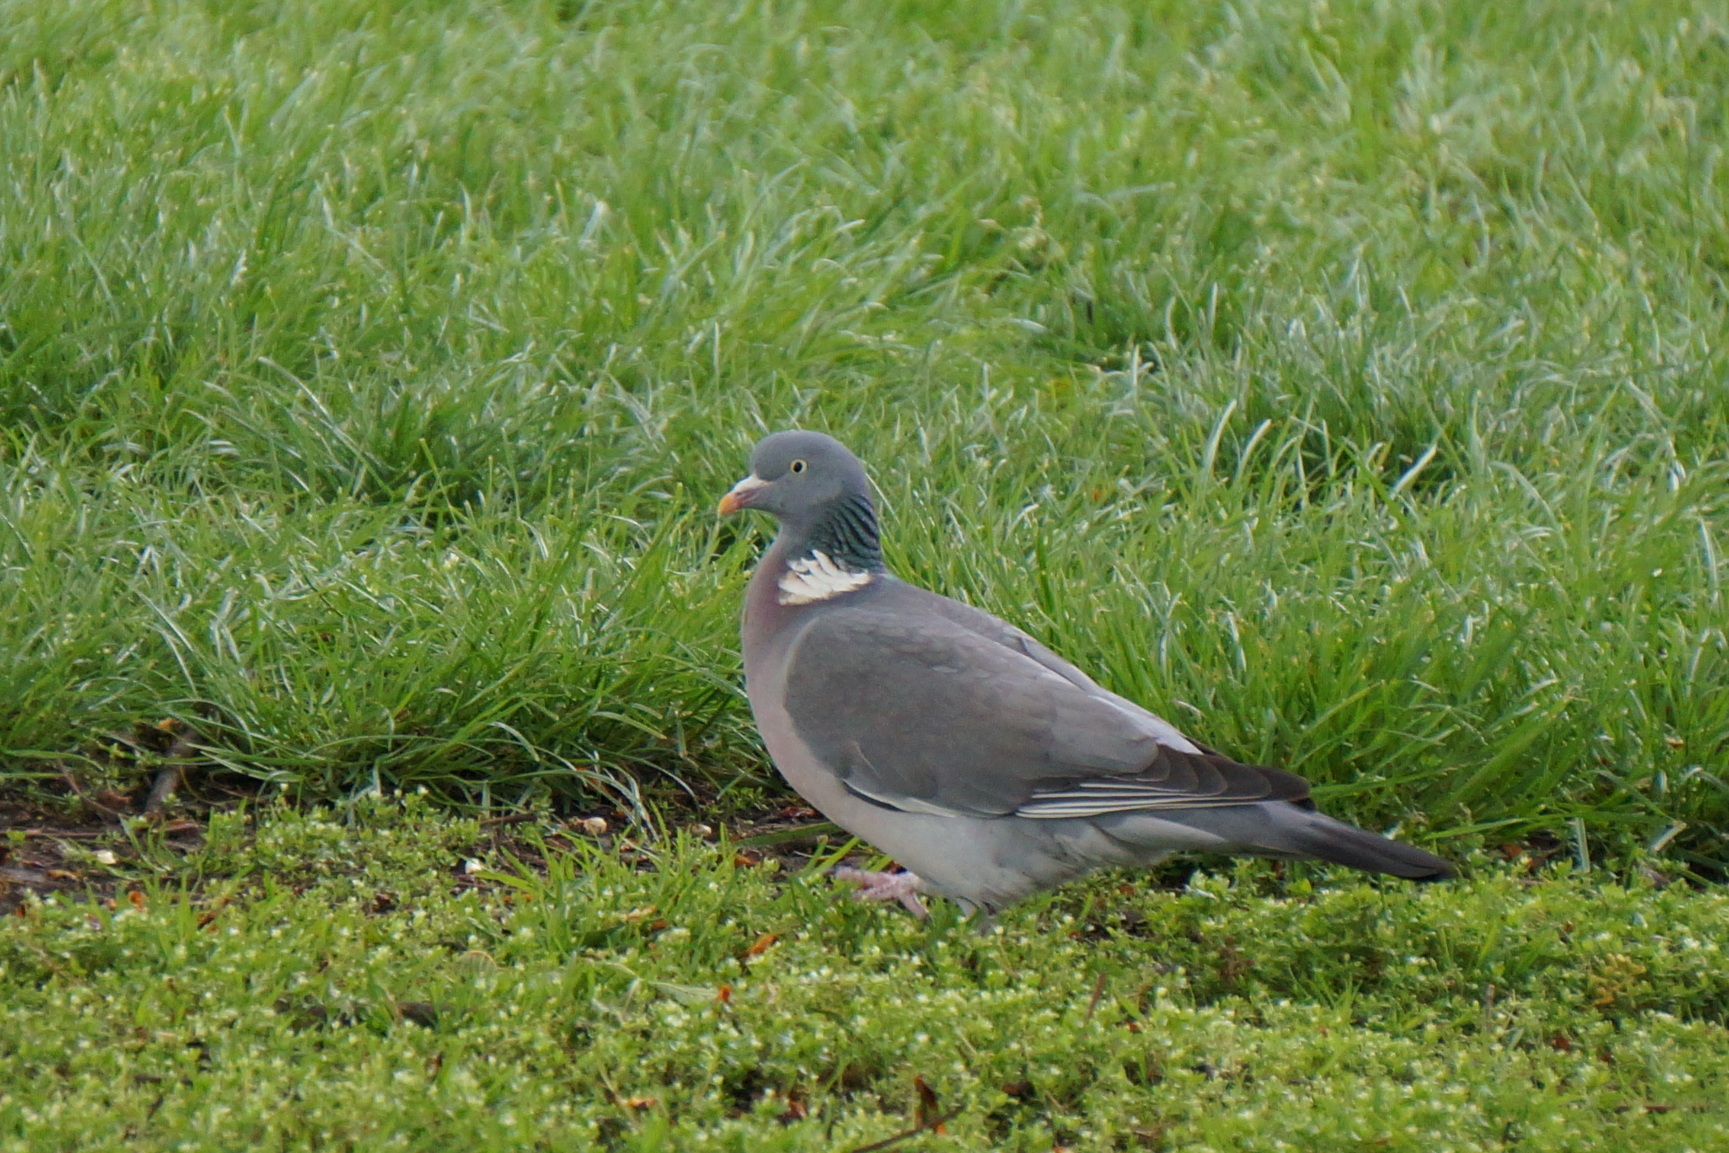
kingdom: Animalia
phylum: Chordata
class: Aves
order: Columbiformes
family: Columbidae
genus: Columba
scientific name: Columba palumbus
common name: Common wood pigeon
